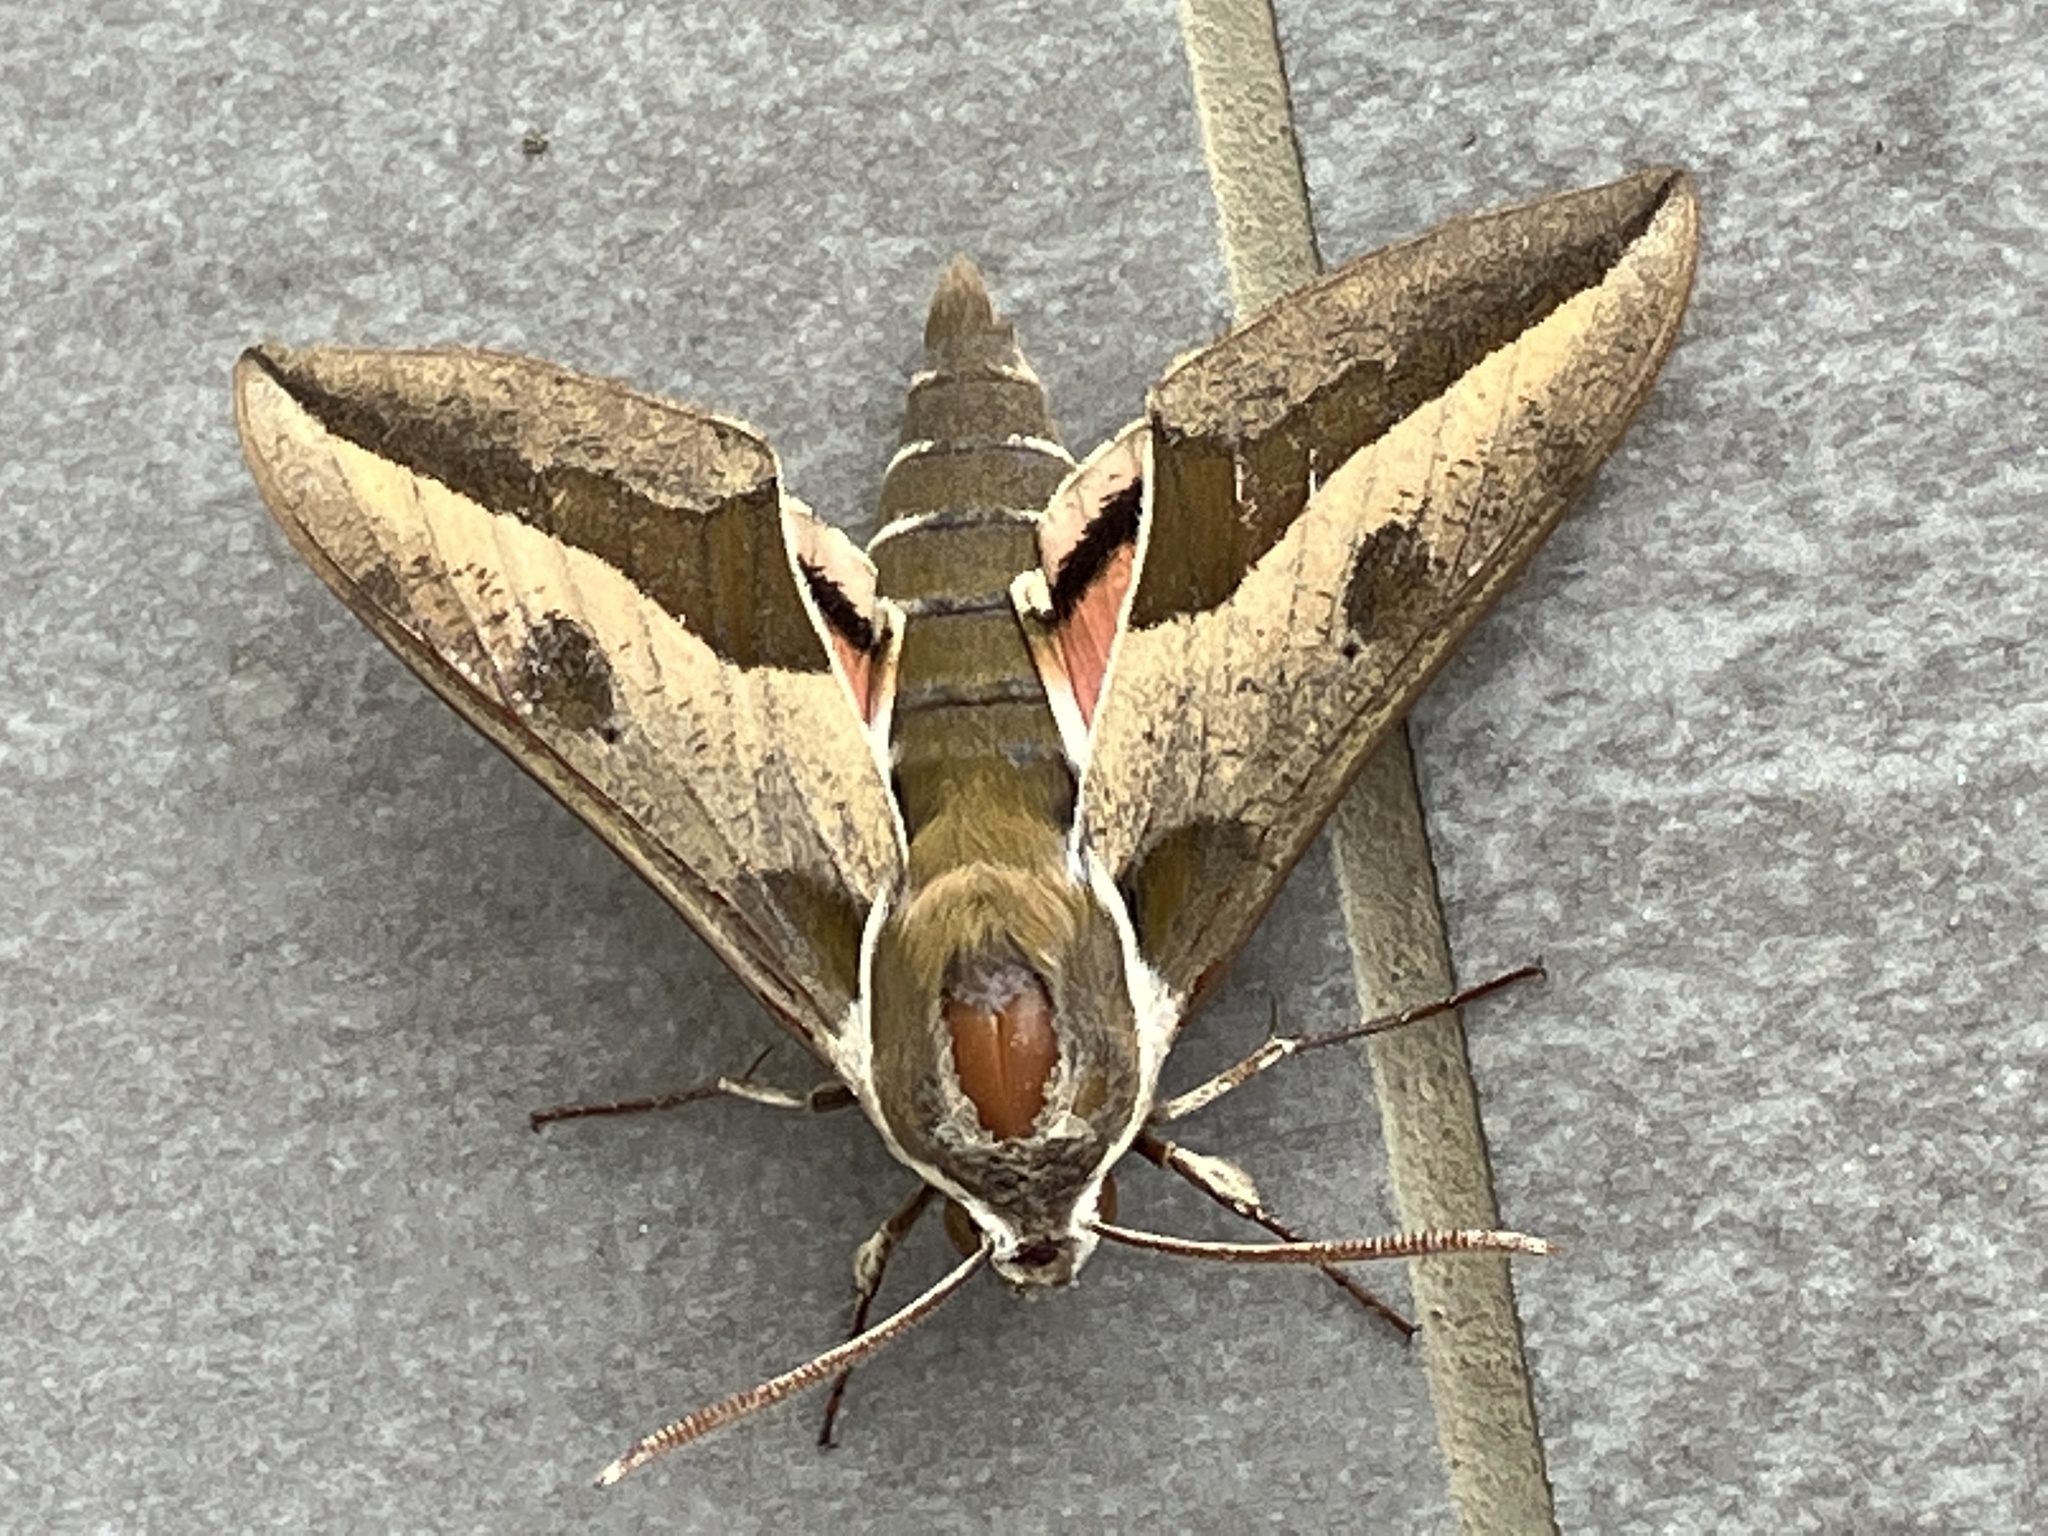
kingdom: Animalia
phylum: Arthropoda
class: Insecta
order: Lepidoptera
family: Sphingidae
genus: Hyles
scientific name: Hyles euphorbiae
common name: Spurge hawk-moth
